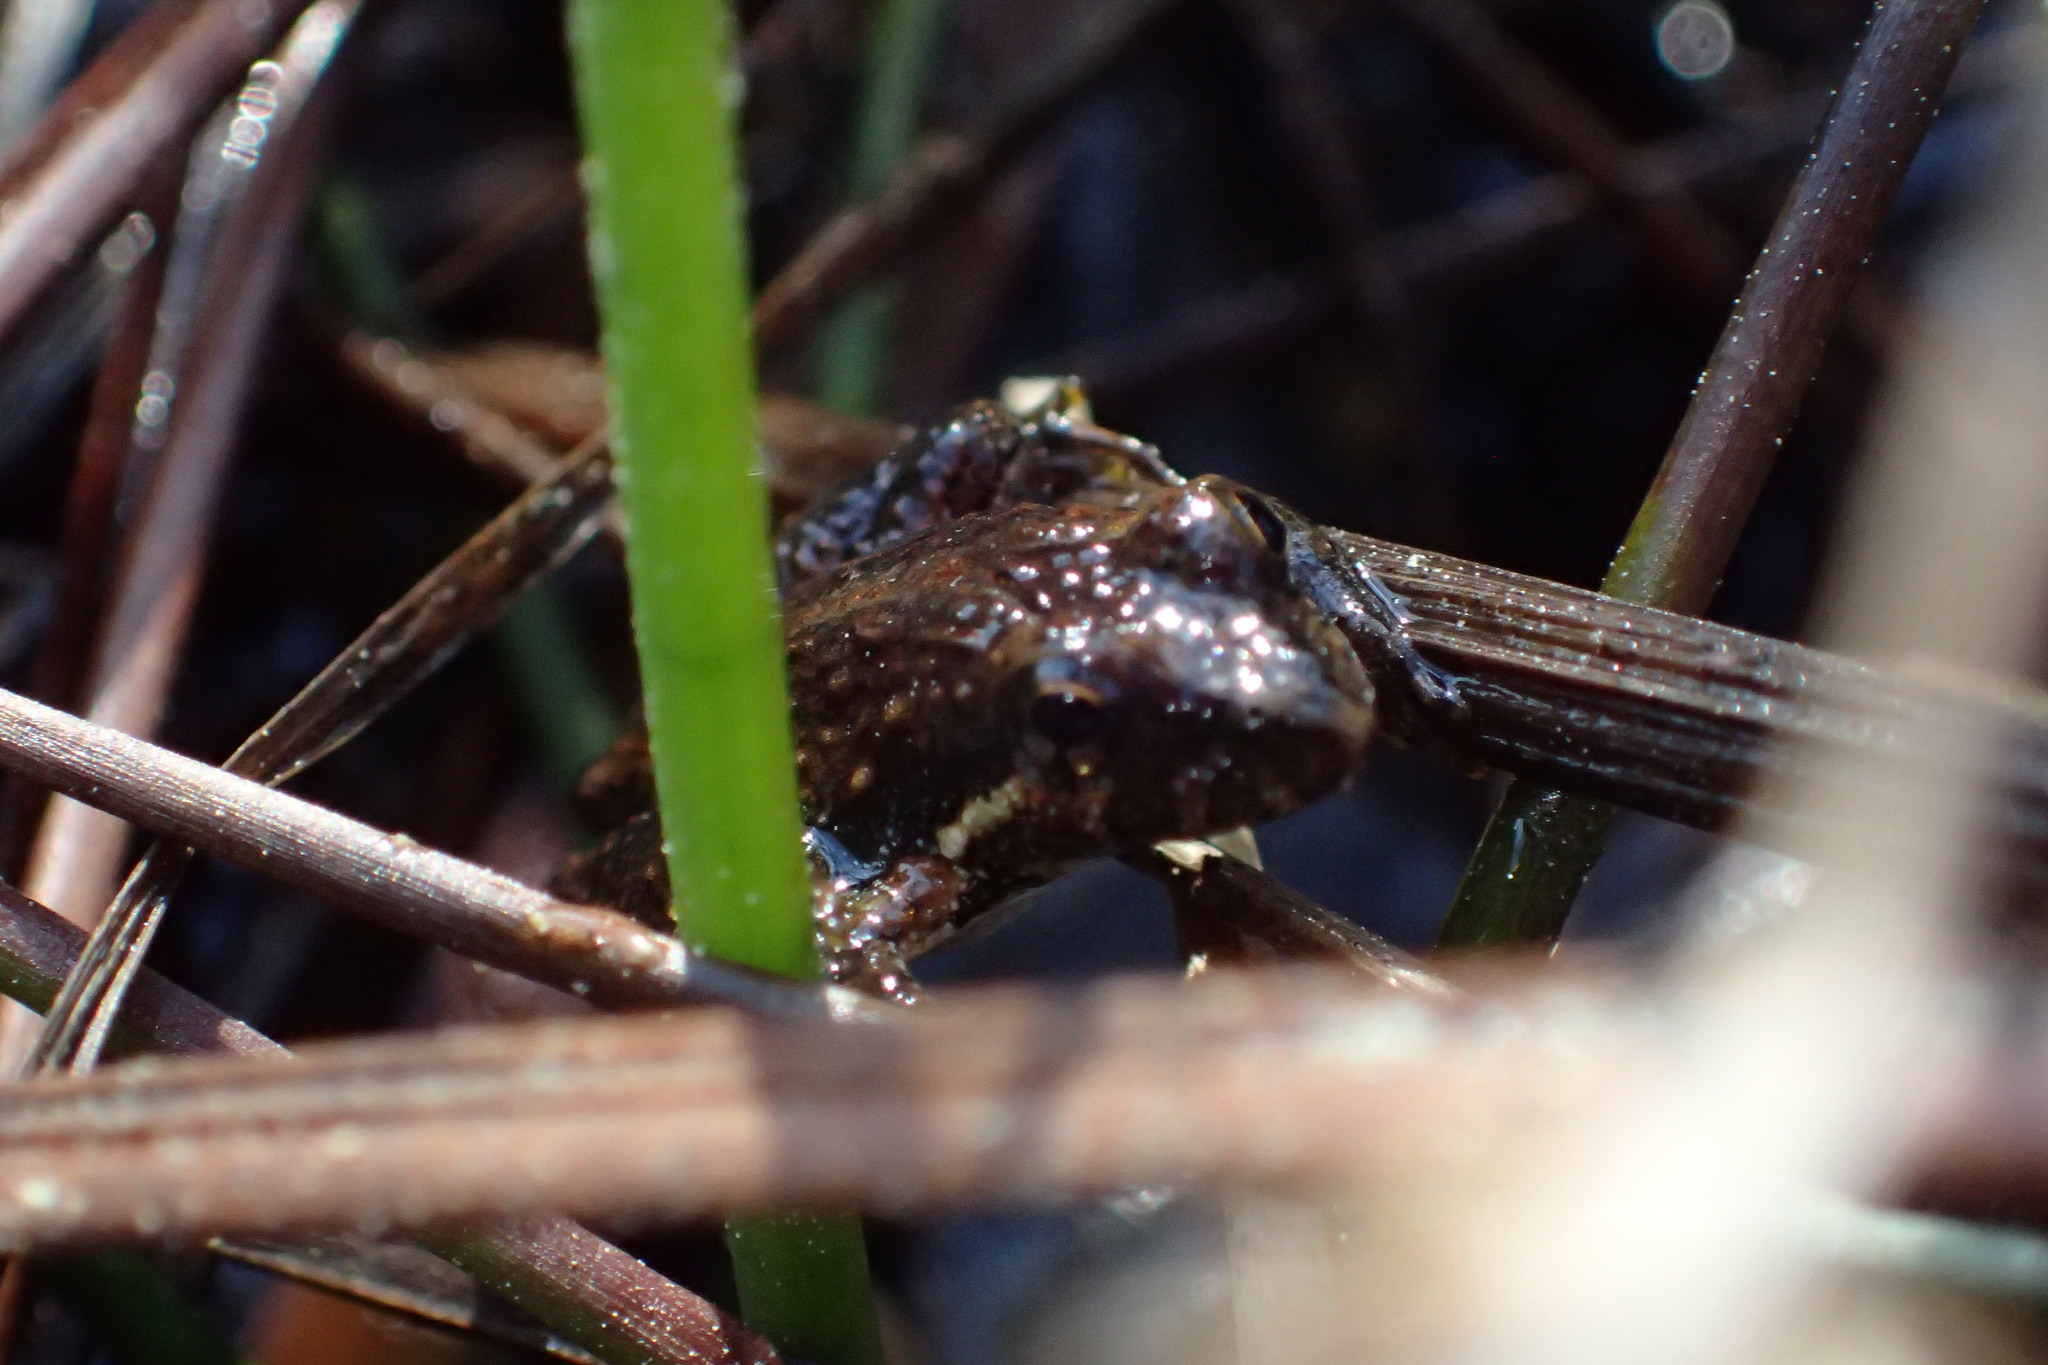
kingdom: Animalia
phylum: Chordata
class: Amphibia
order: Anura
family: Hylidae
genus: Acris
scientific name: Acris gryllus
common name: Southern cricket frog
